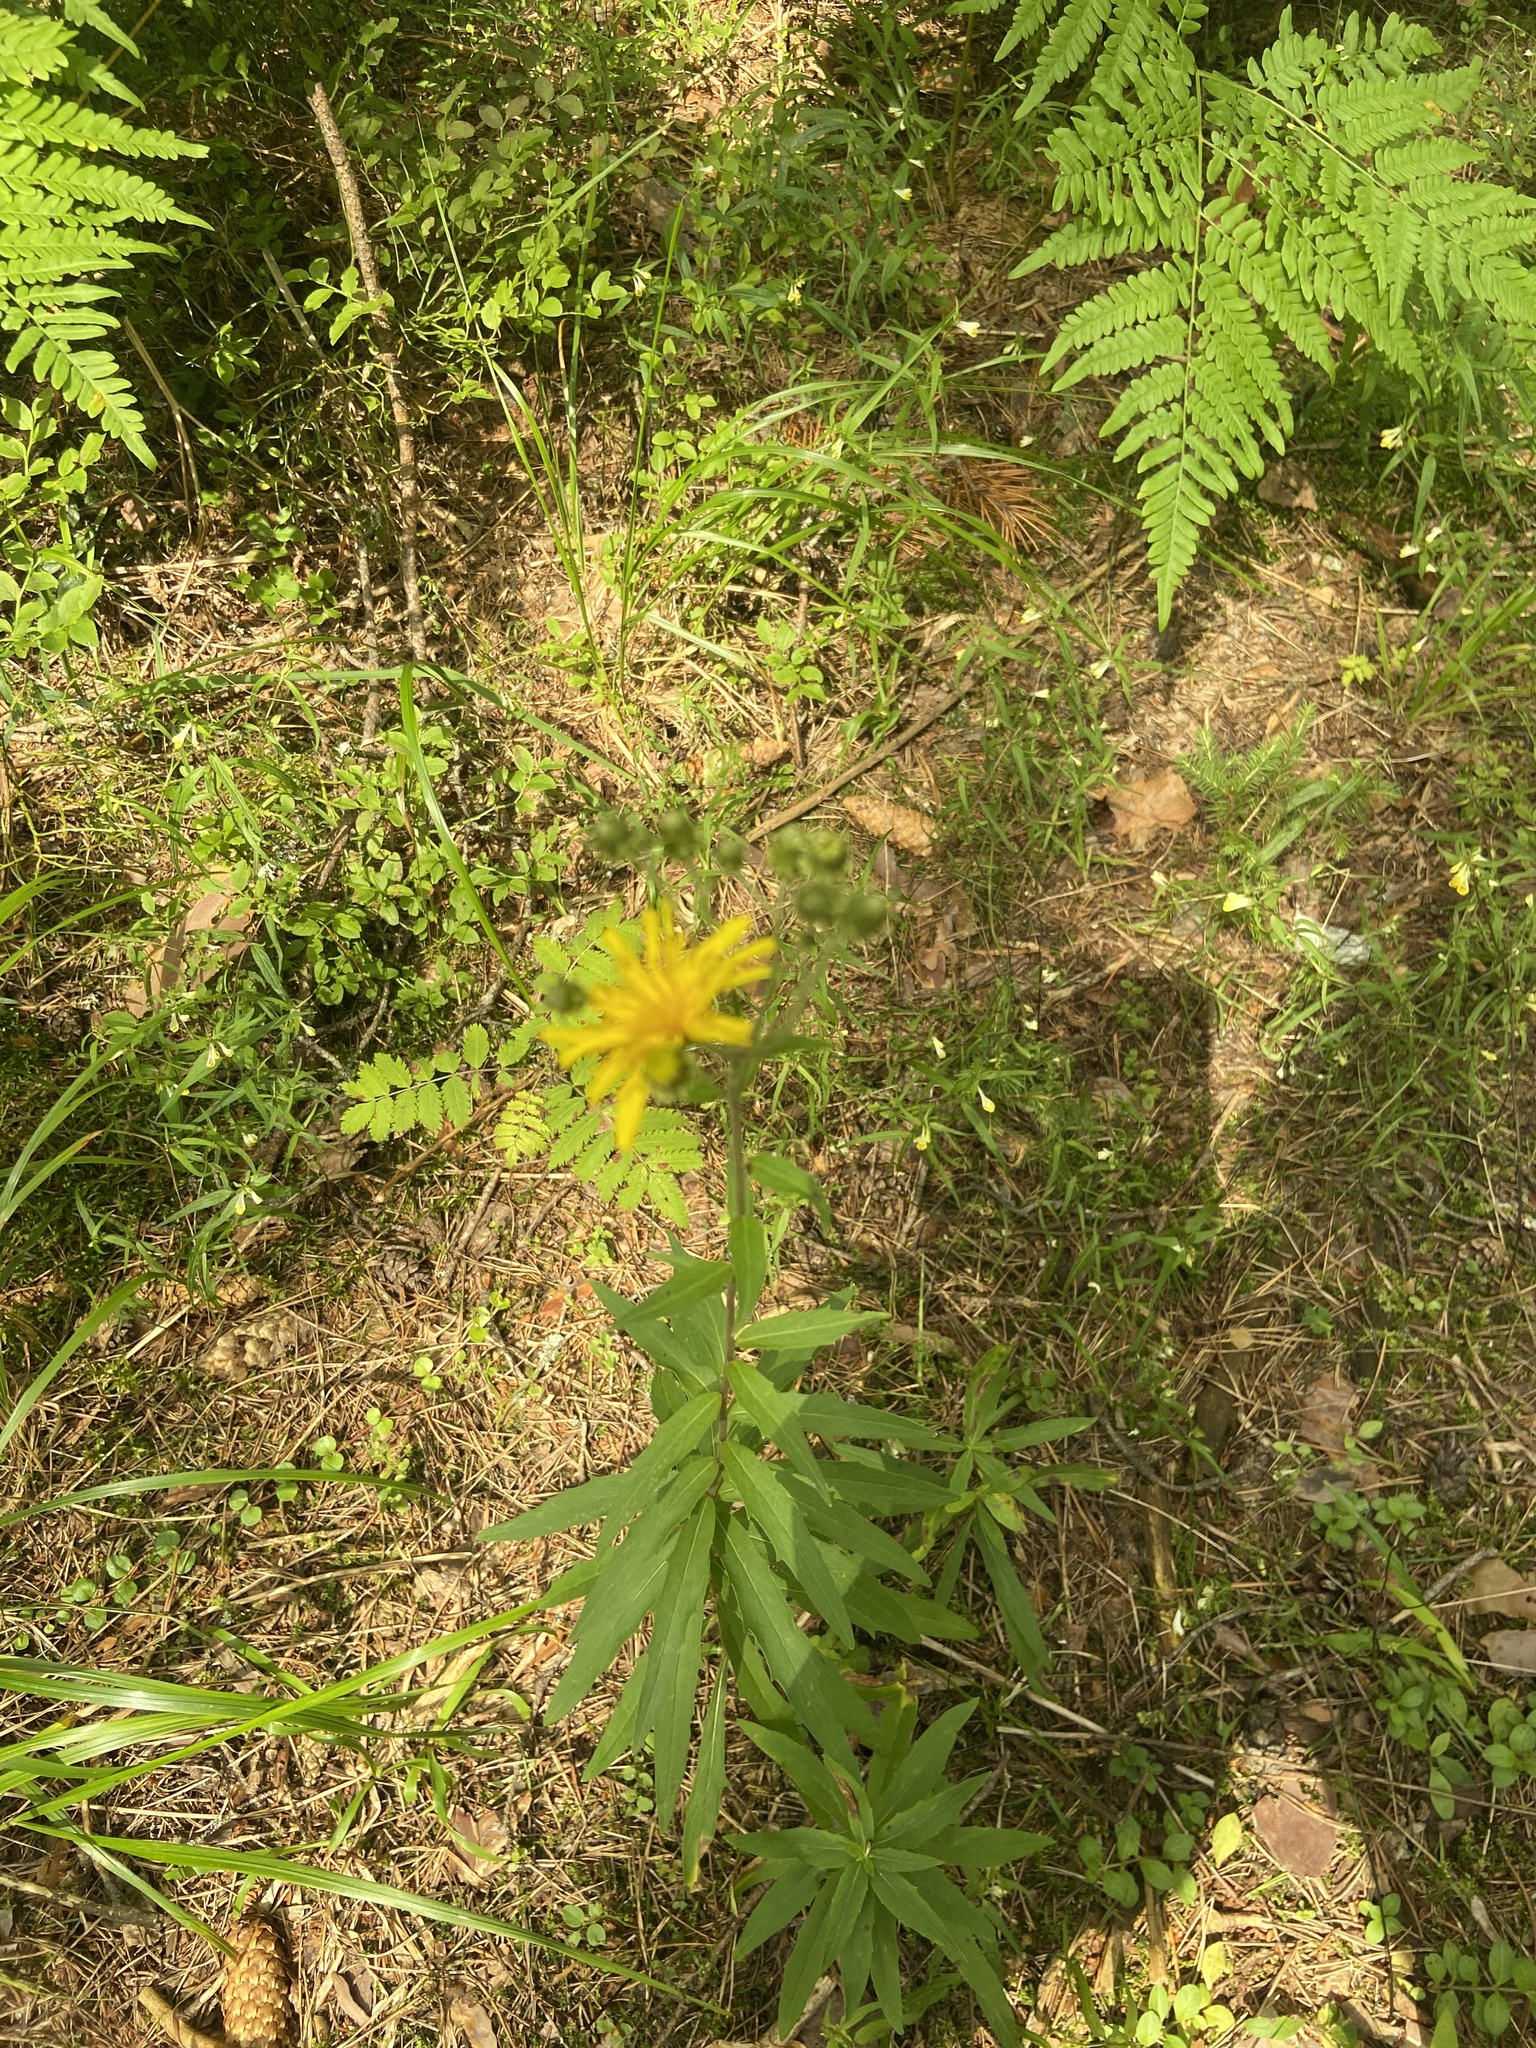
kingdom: Plantae
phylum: Tracheophyta
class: Magnoliopsida
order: Asterales
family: Asteraceae
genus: Hieracium
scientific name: Hieracium umbellatum
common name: Northern hawkweed
